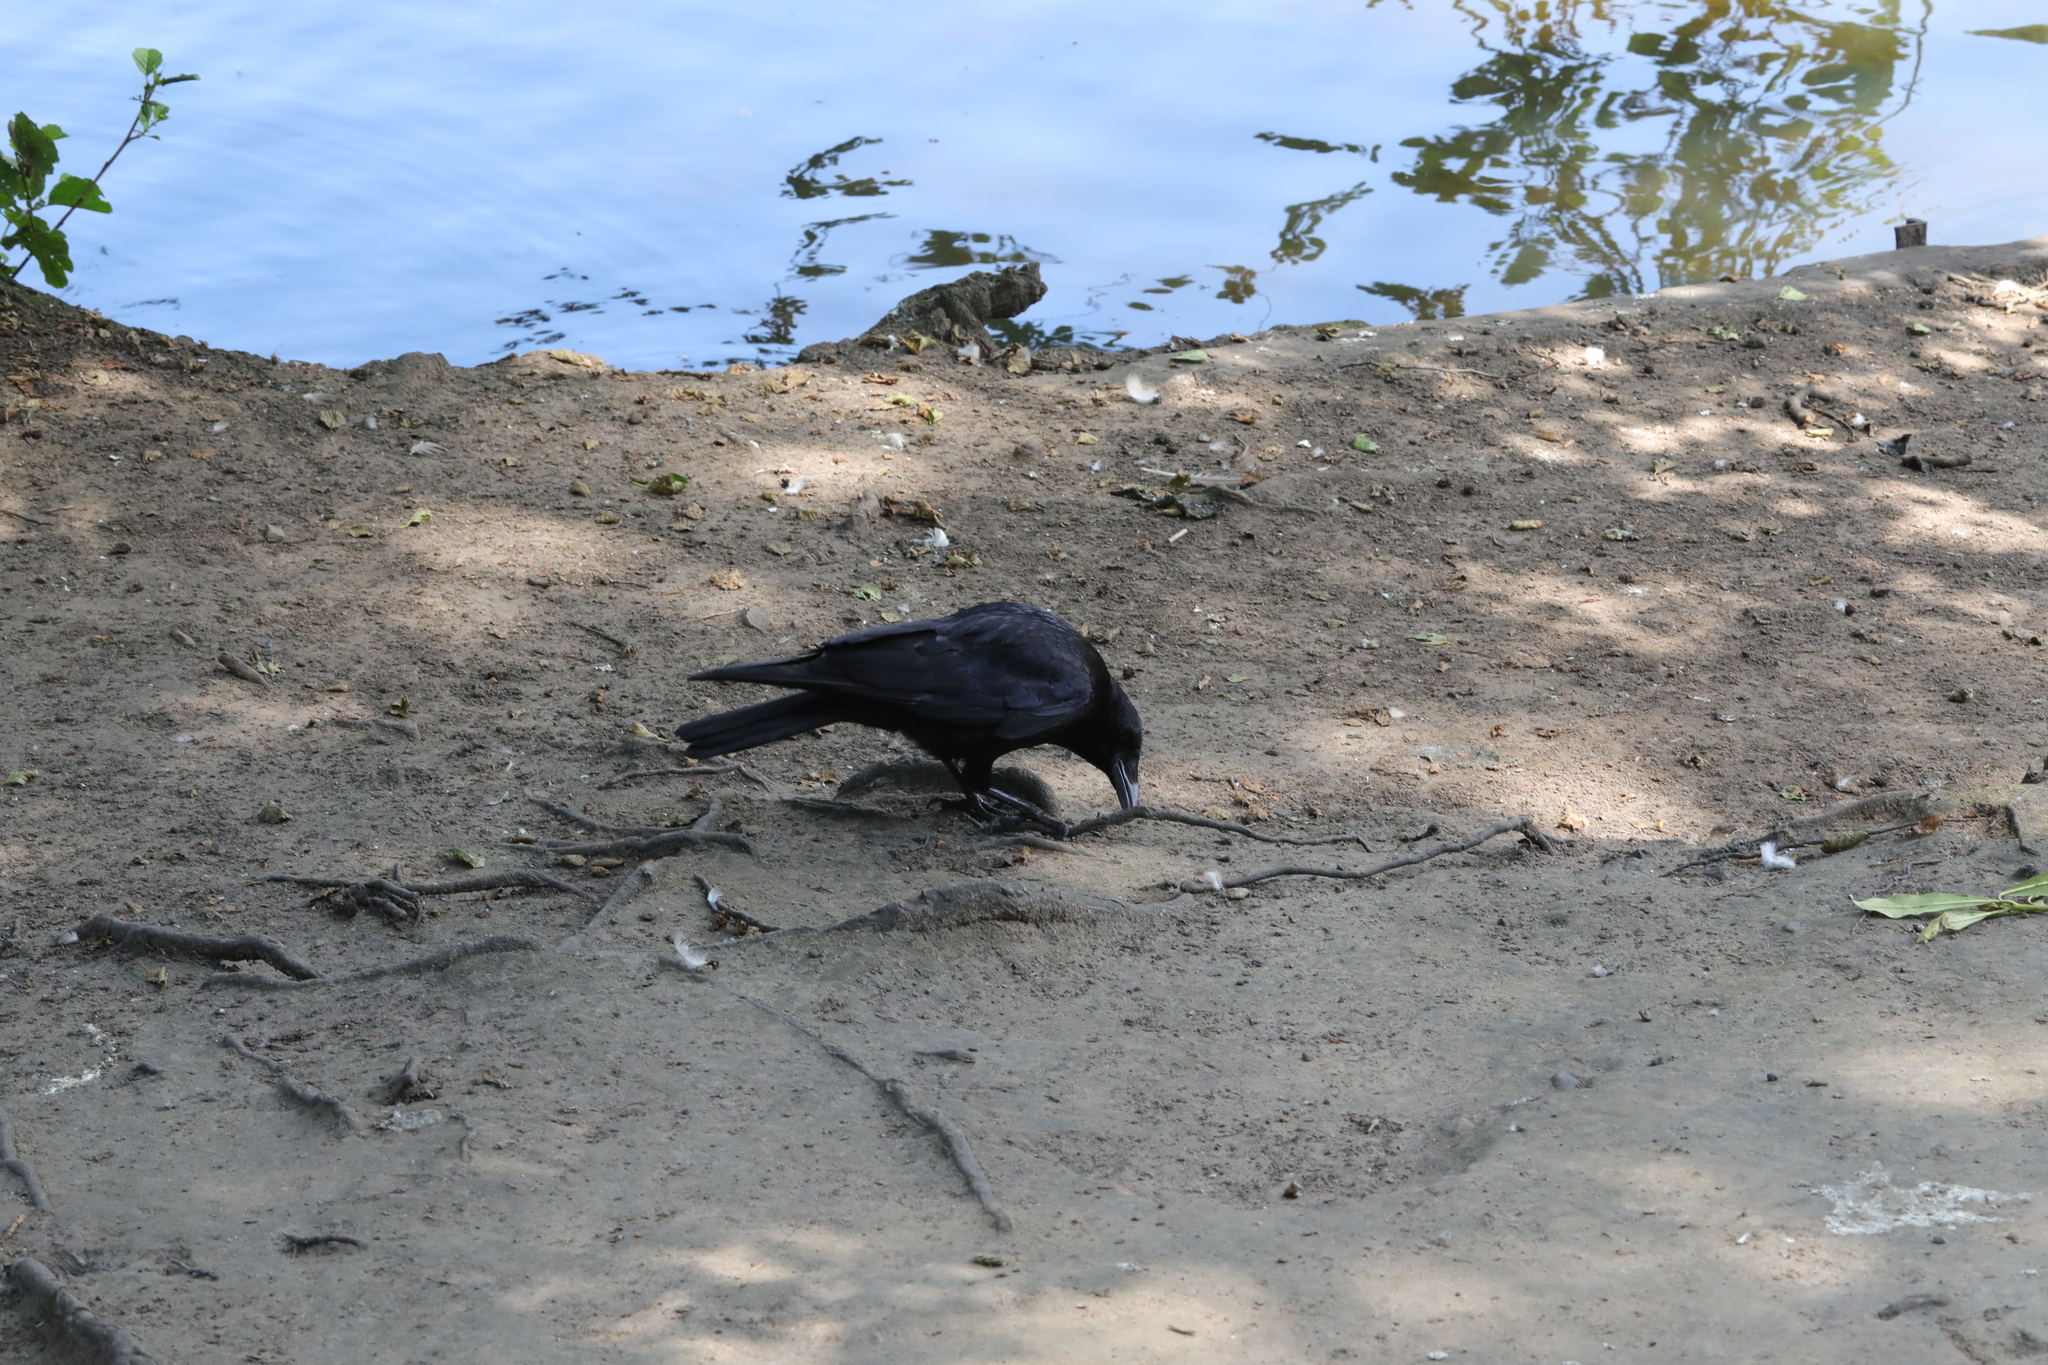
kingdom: Animalia
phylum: Chordata
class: Aves
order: Passeriformes
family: Corvidae
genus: Corvus
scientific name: Corvus corone
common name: Carrion crow
